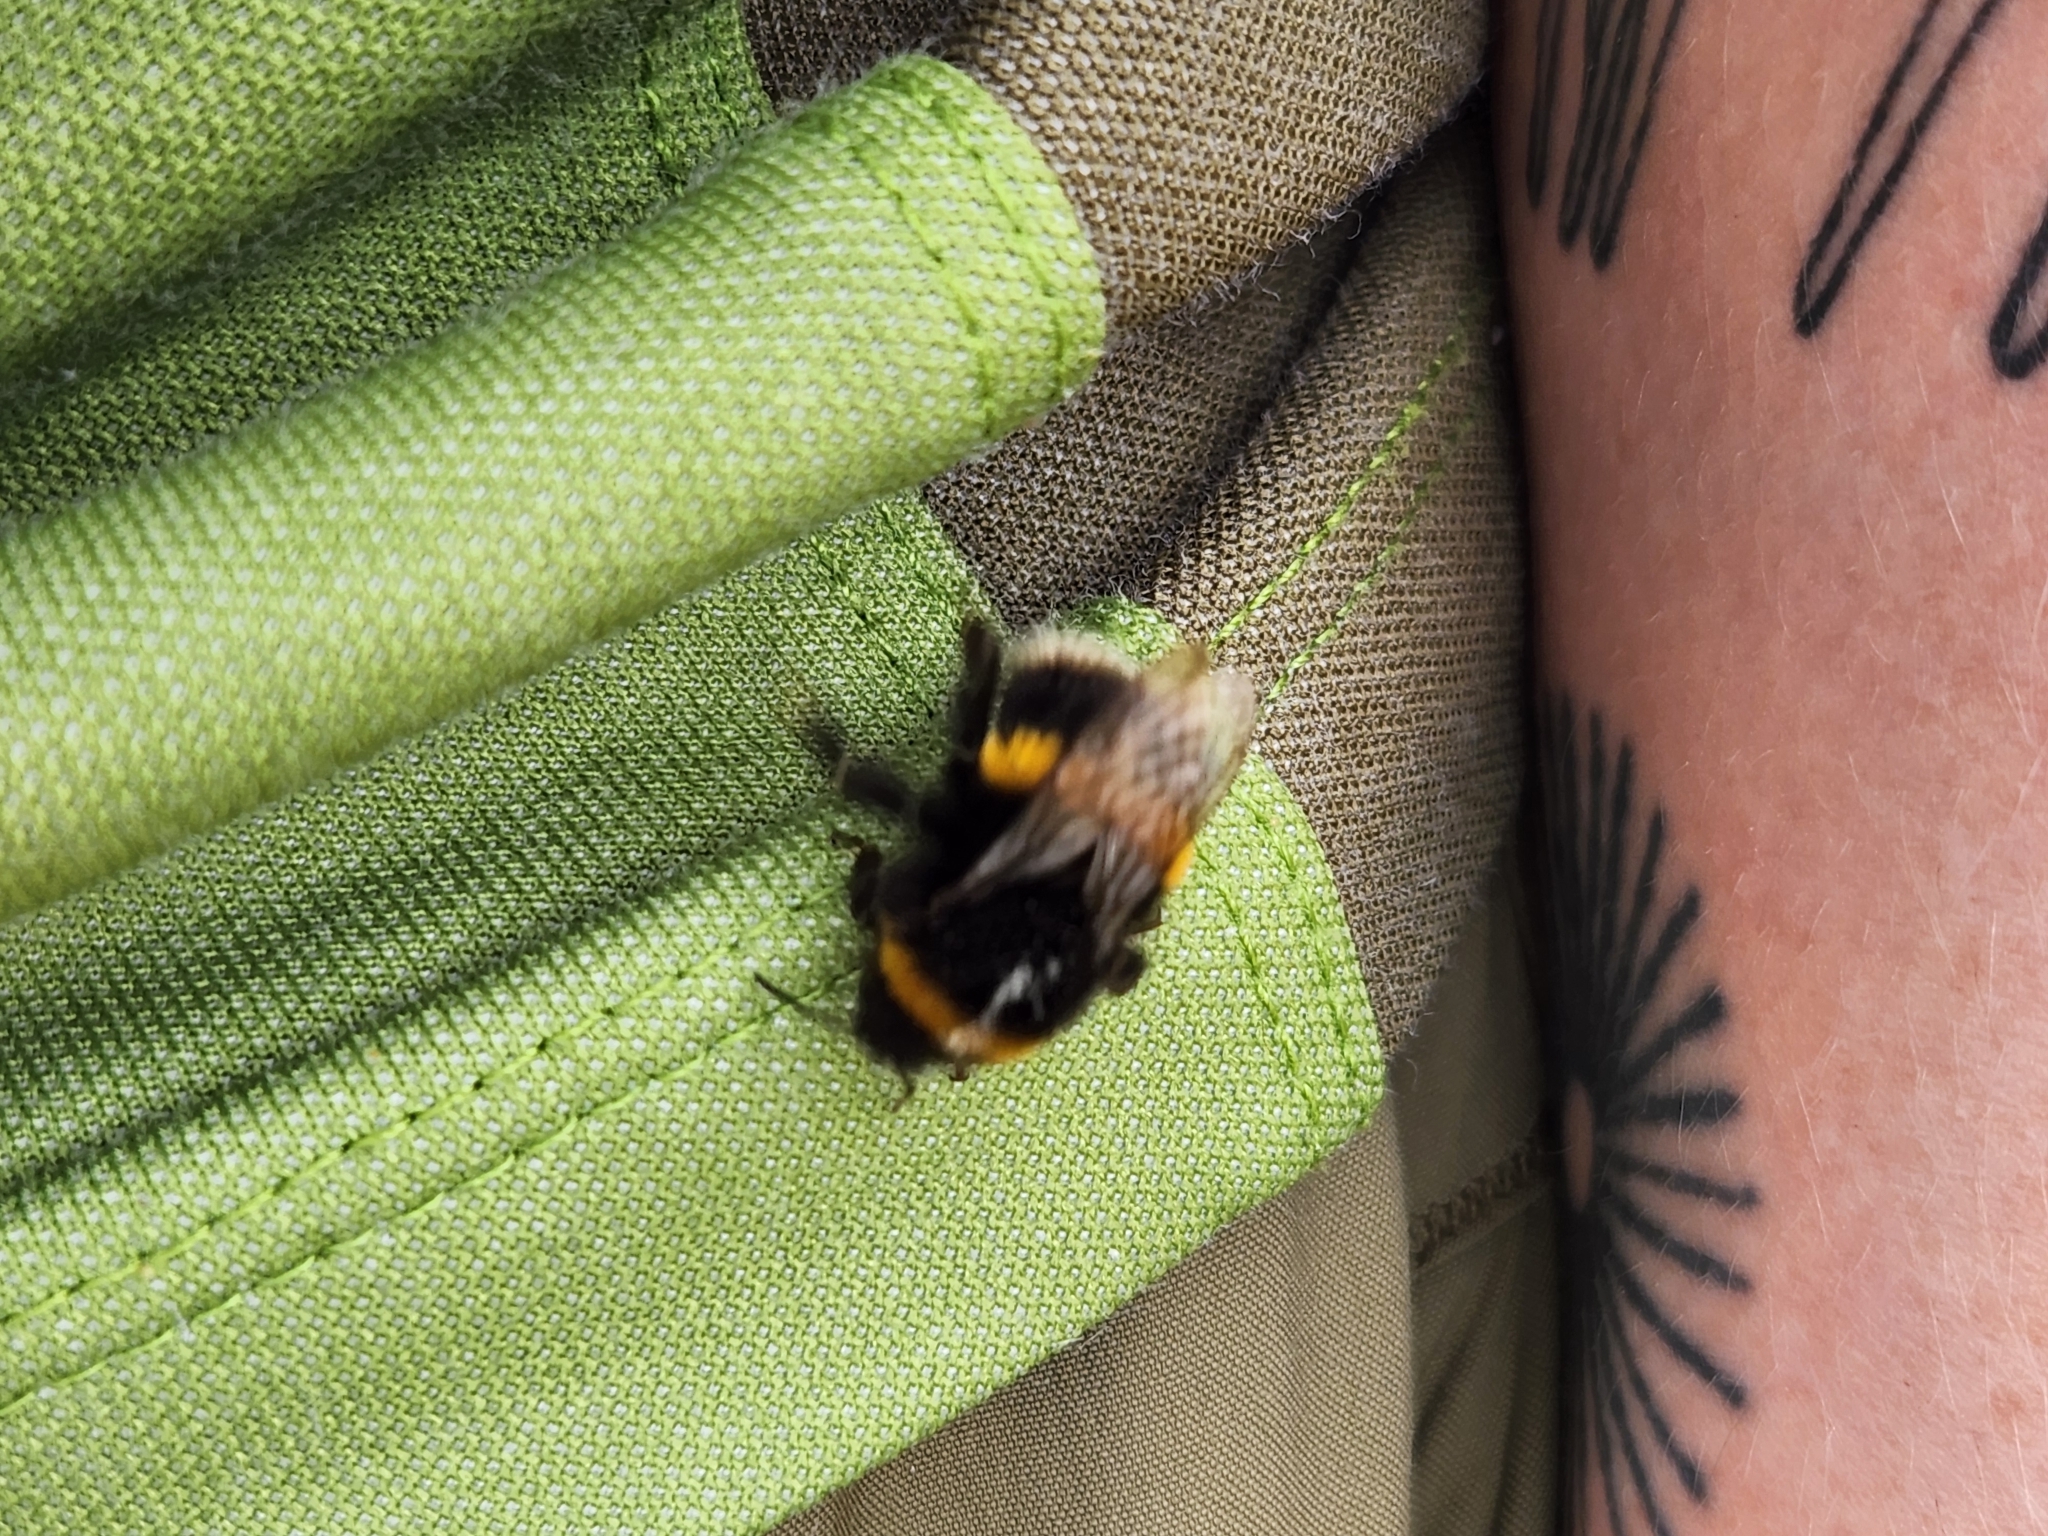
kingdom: Animalia
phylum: Arthropoda
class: Insecta
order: Hymenoptera
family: Apidae
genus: Bombus
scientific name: Bombus terrestris
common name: Buff-tailed bumblebee
